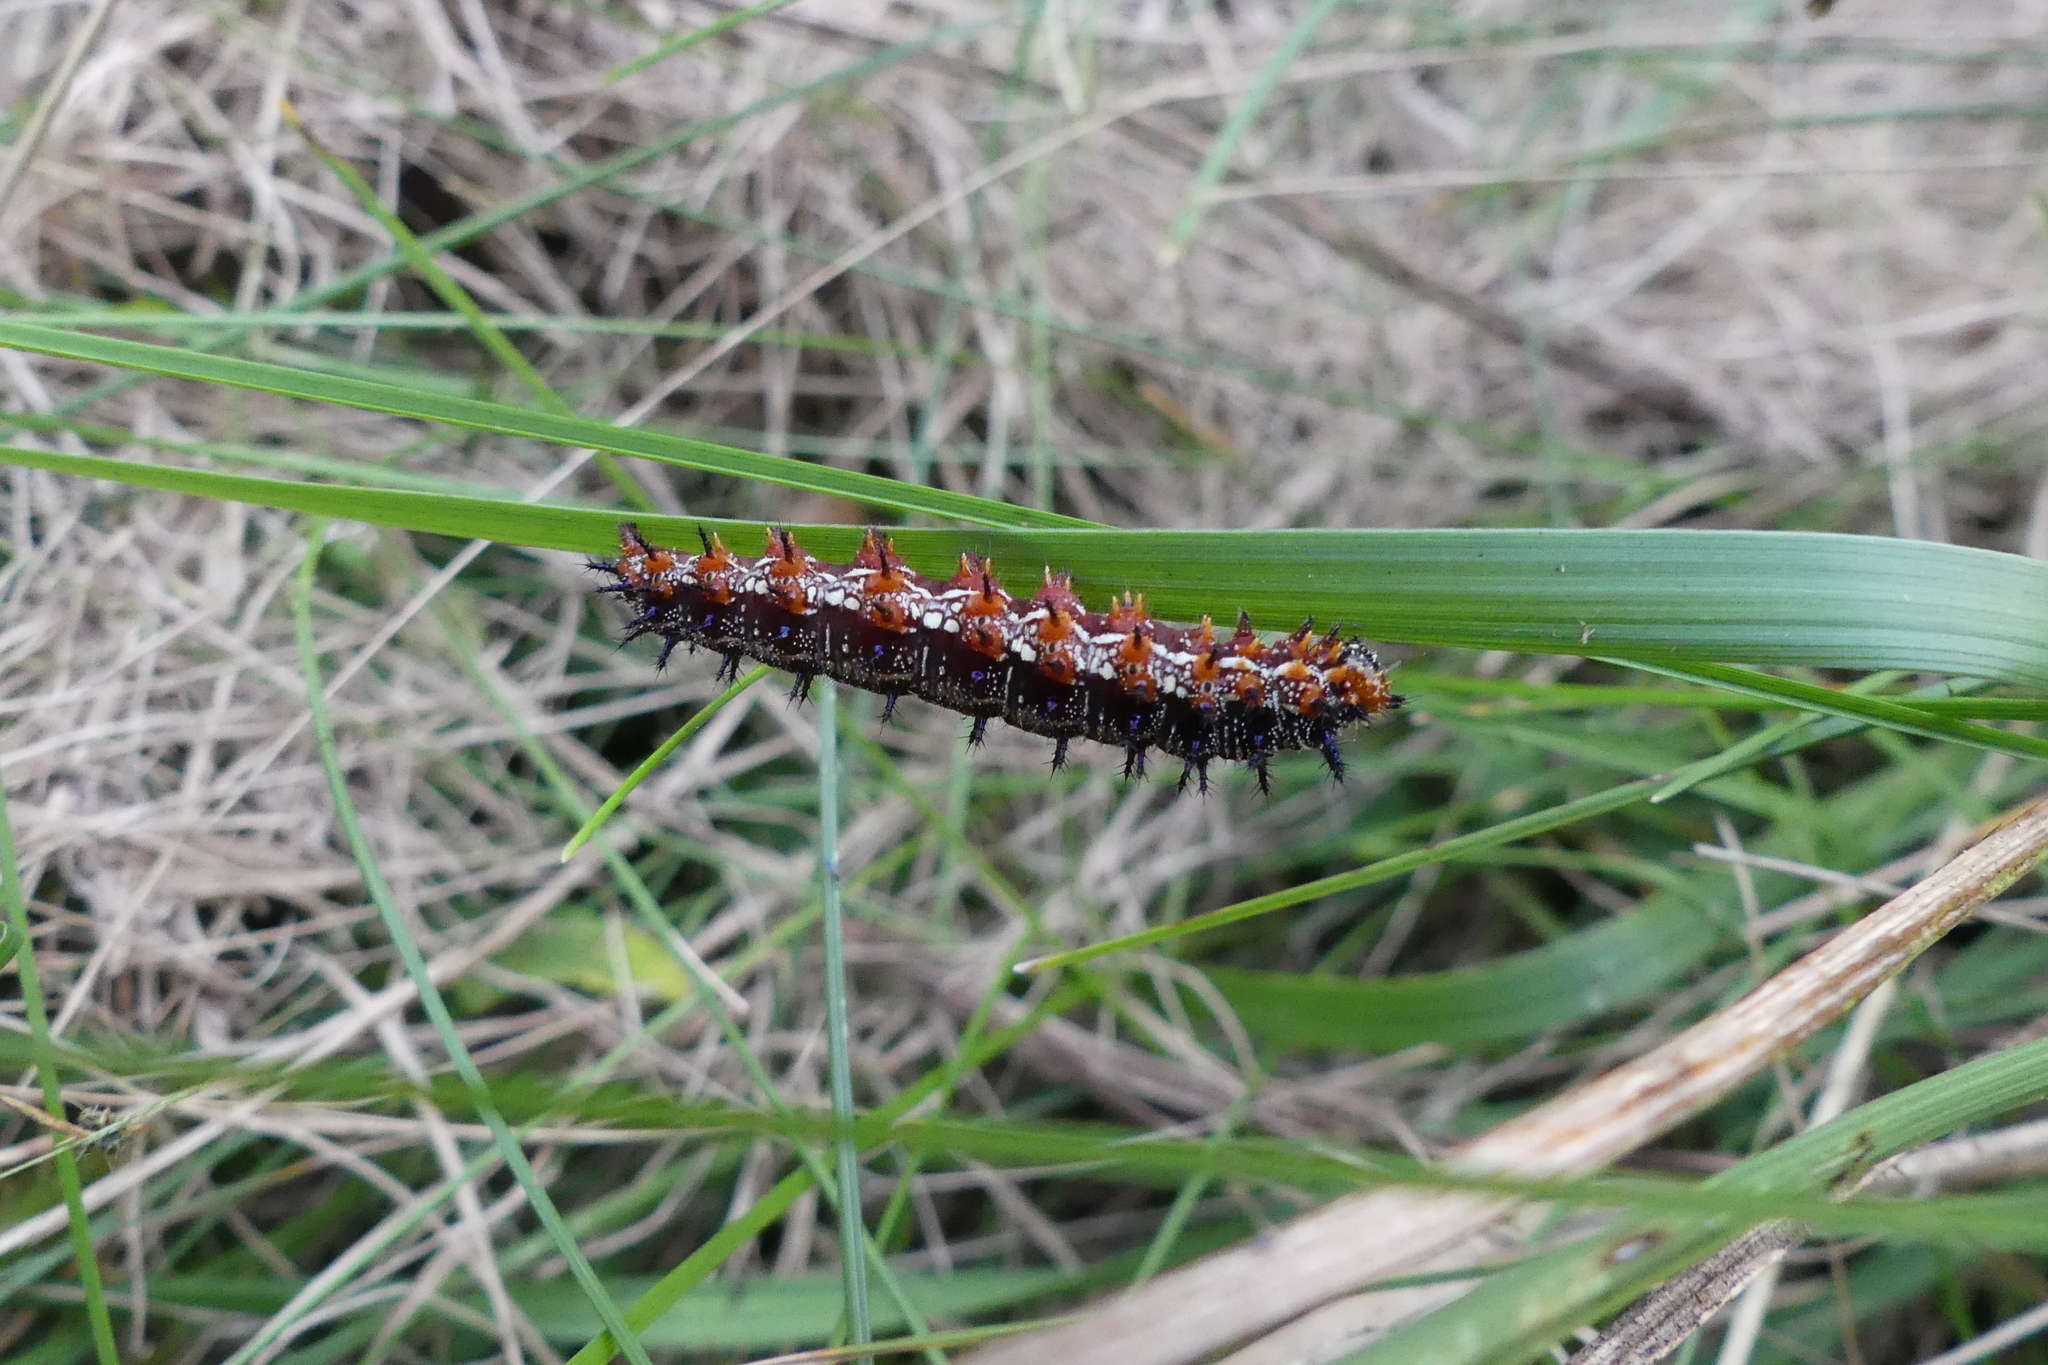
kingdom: Animalia
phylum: Arthropoda
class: Insecta
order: Lepidoptera
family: Nymphalidae
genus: Junonia
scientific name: Junonia coenia
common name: Common buckeye
